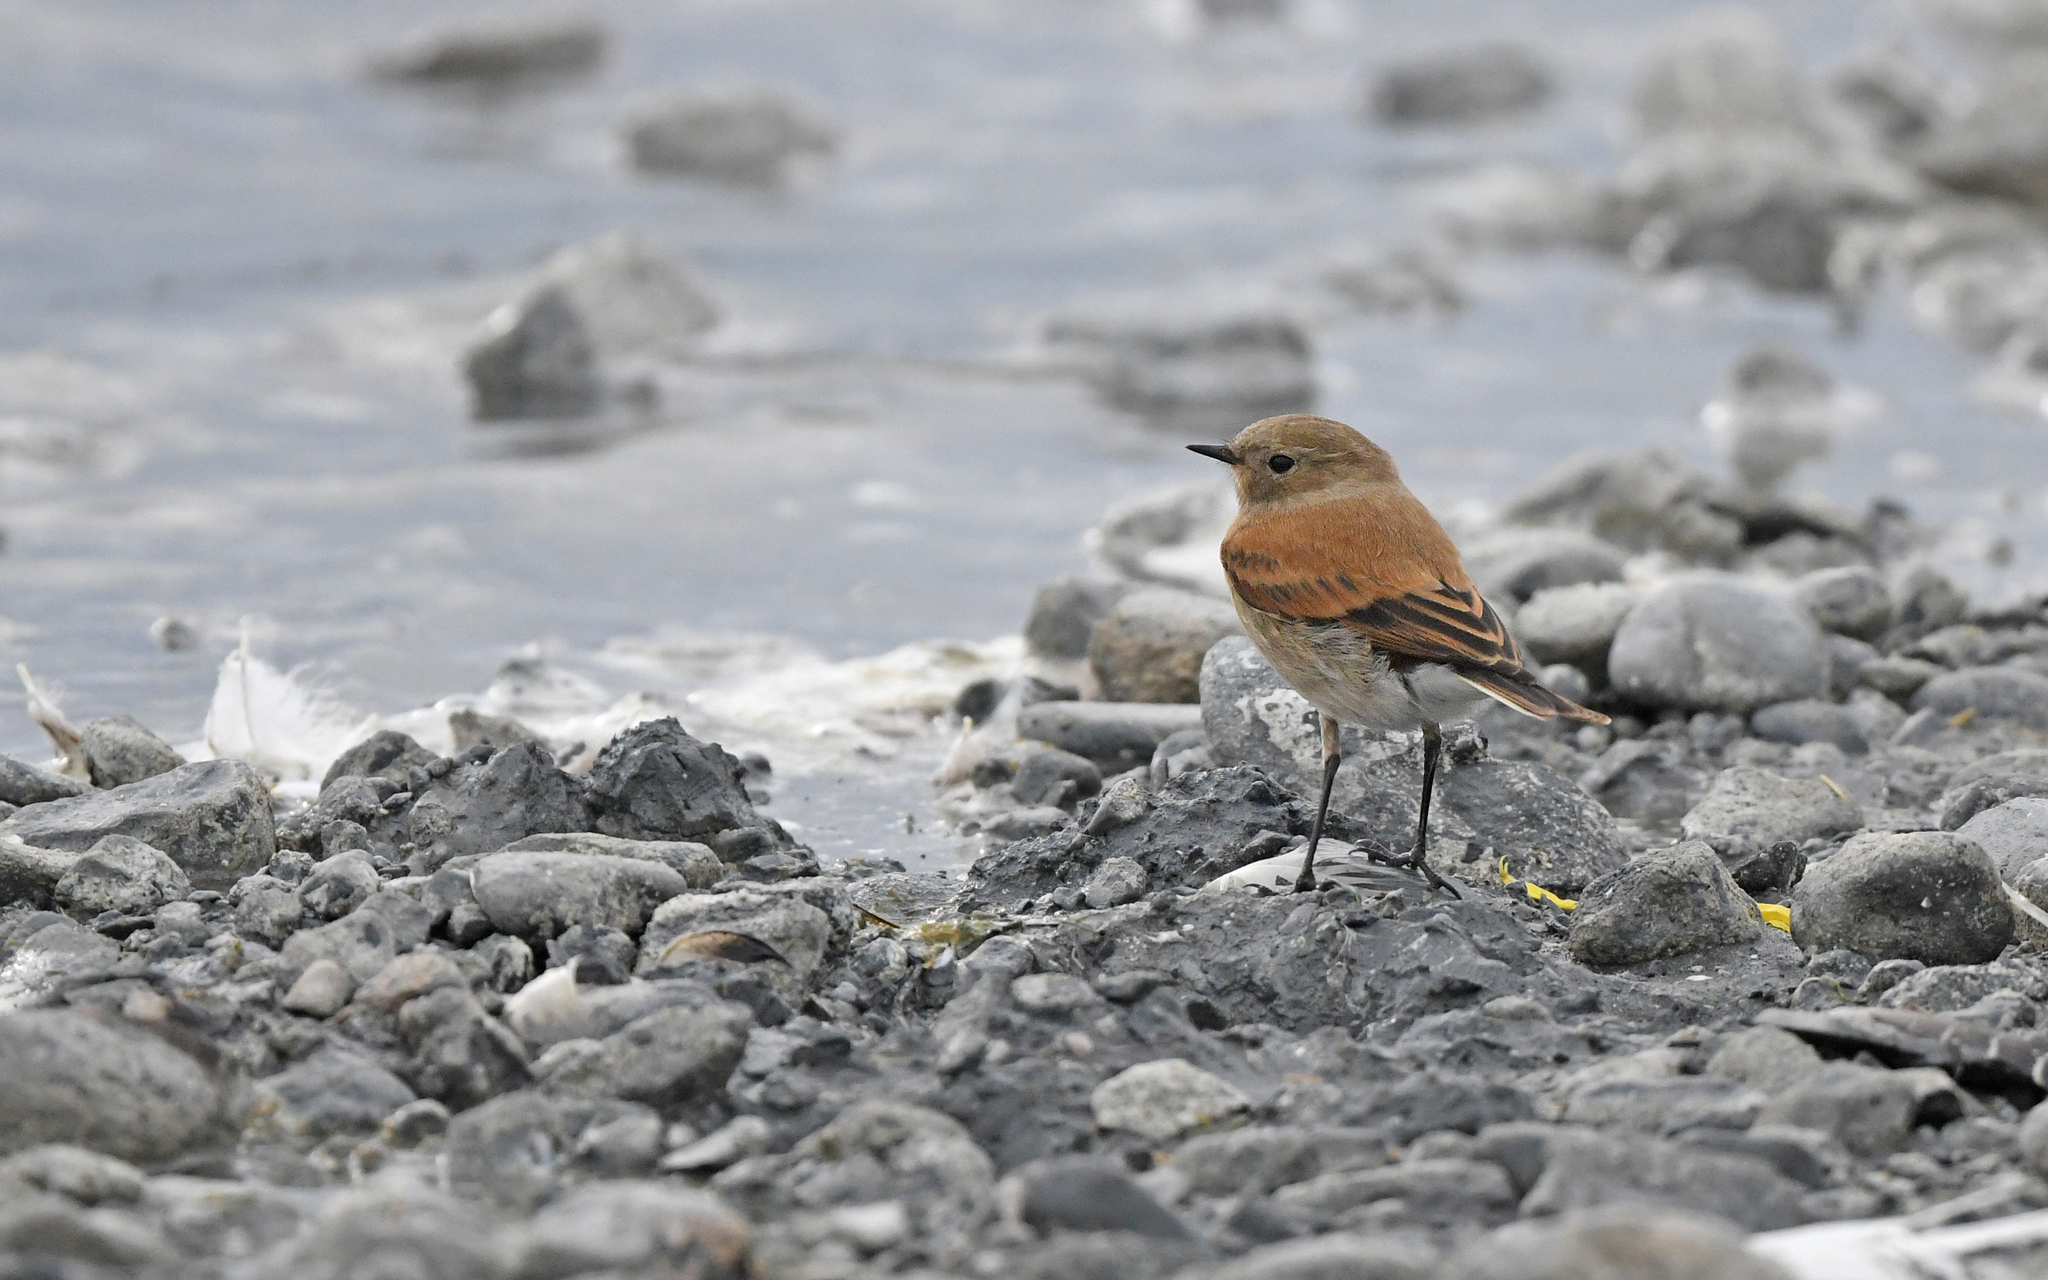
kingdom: Animalia
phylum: Chordata
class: Aves
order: Passeriformes
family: Tyrannidae
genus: Lessonia
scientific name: Lessonia rufa
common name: Austral negrito
